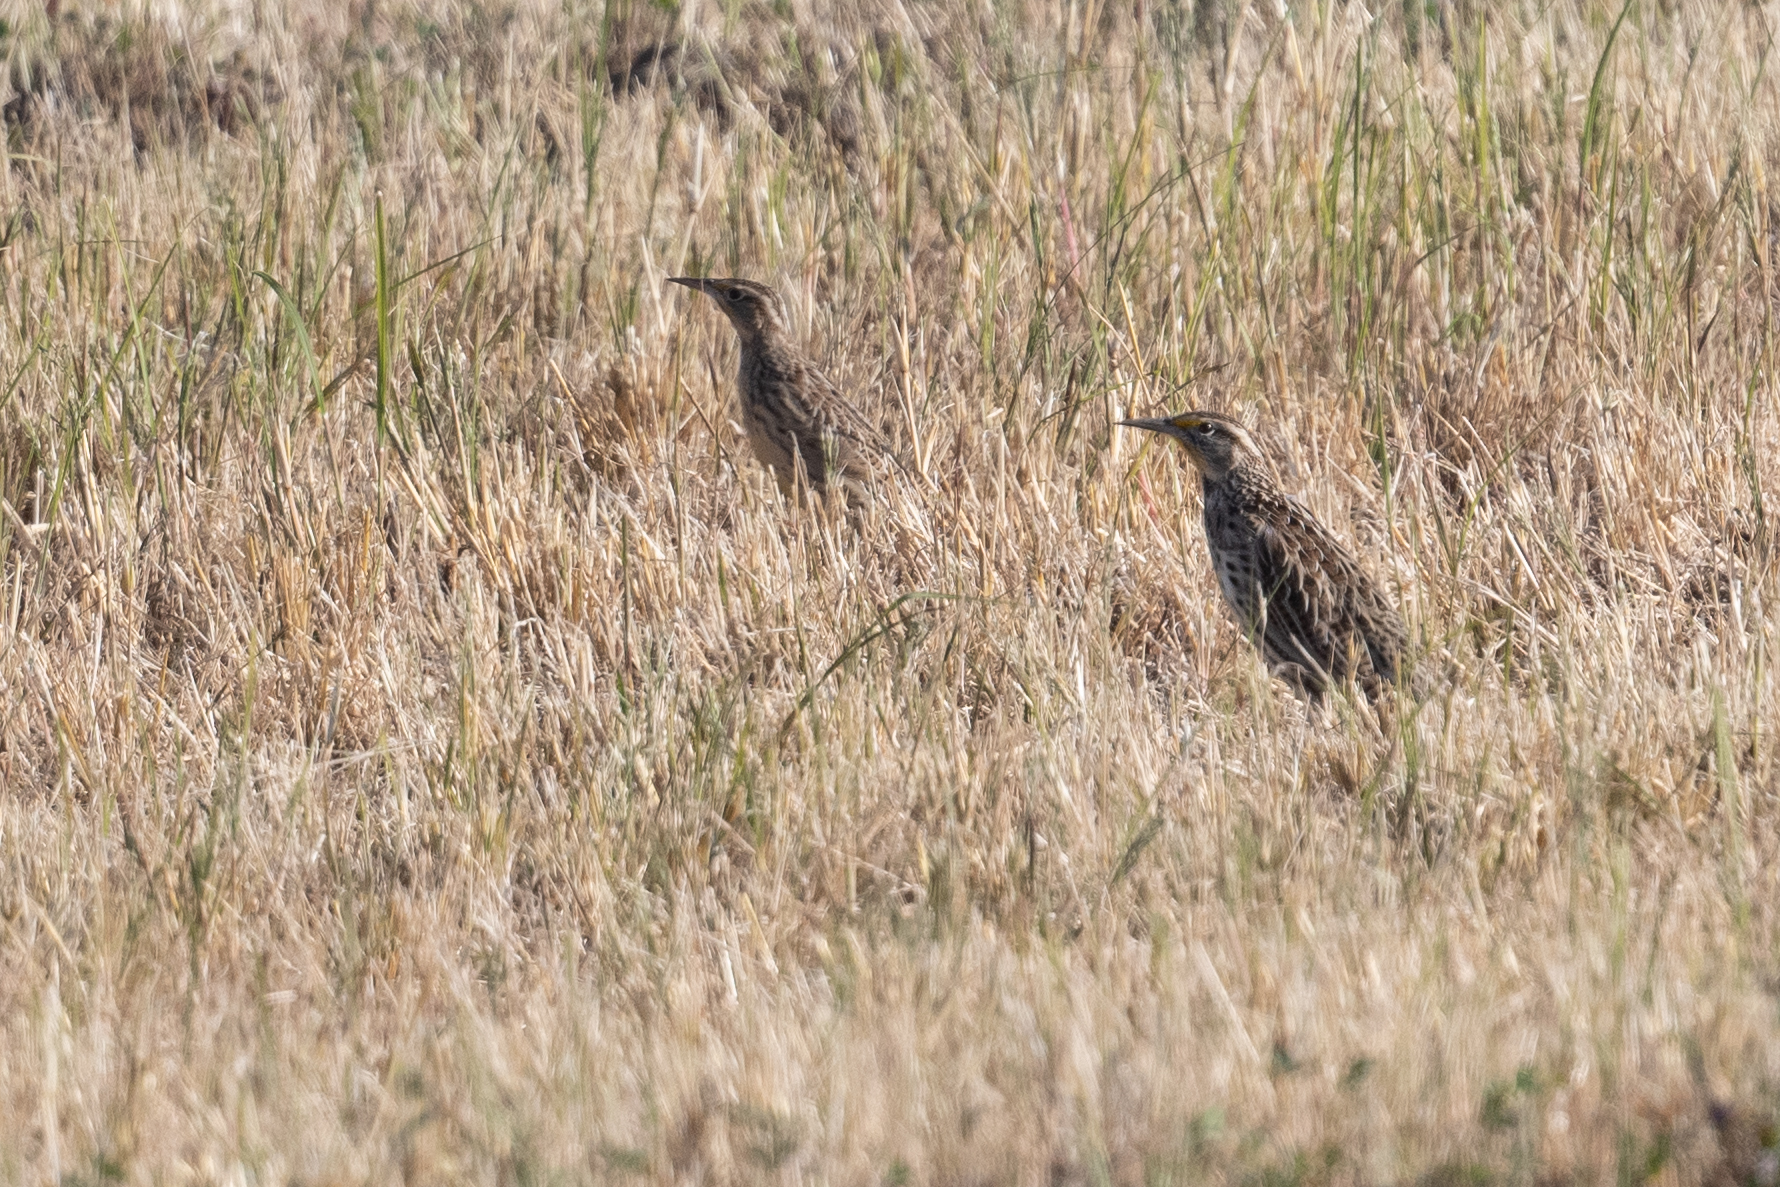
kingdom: Animalia
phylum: Chordata
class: Aves
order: Passeriformes
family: Icteridae
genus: Sturnella
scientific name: Sturnella neglecta
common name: Western meadowlark
